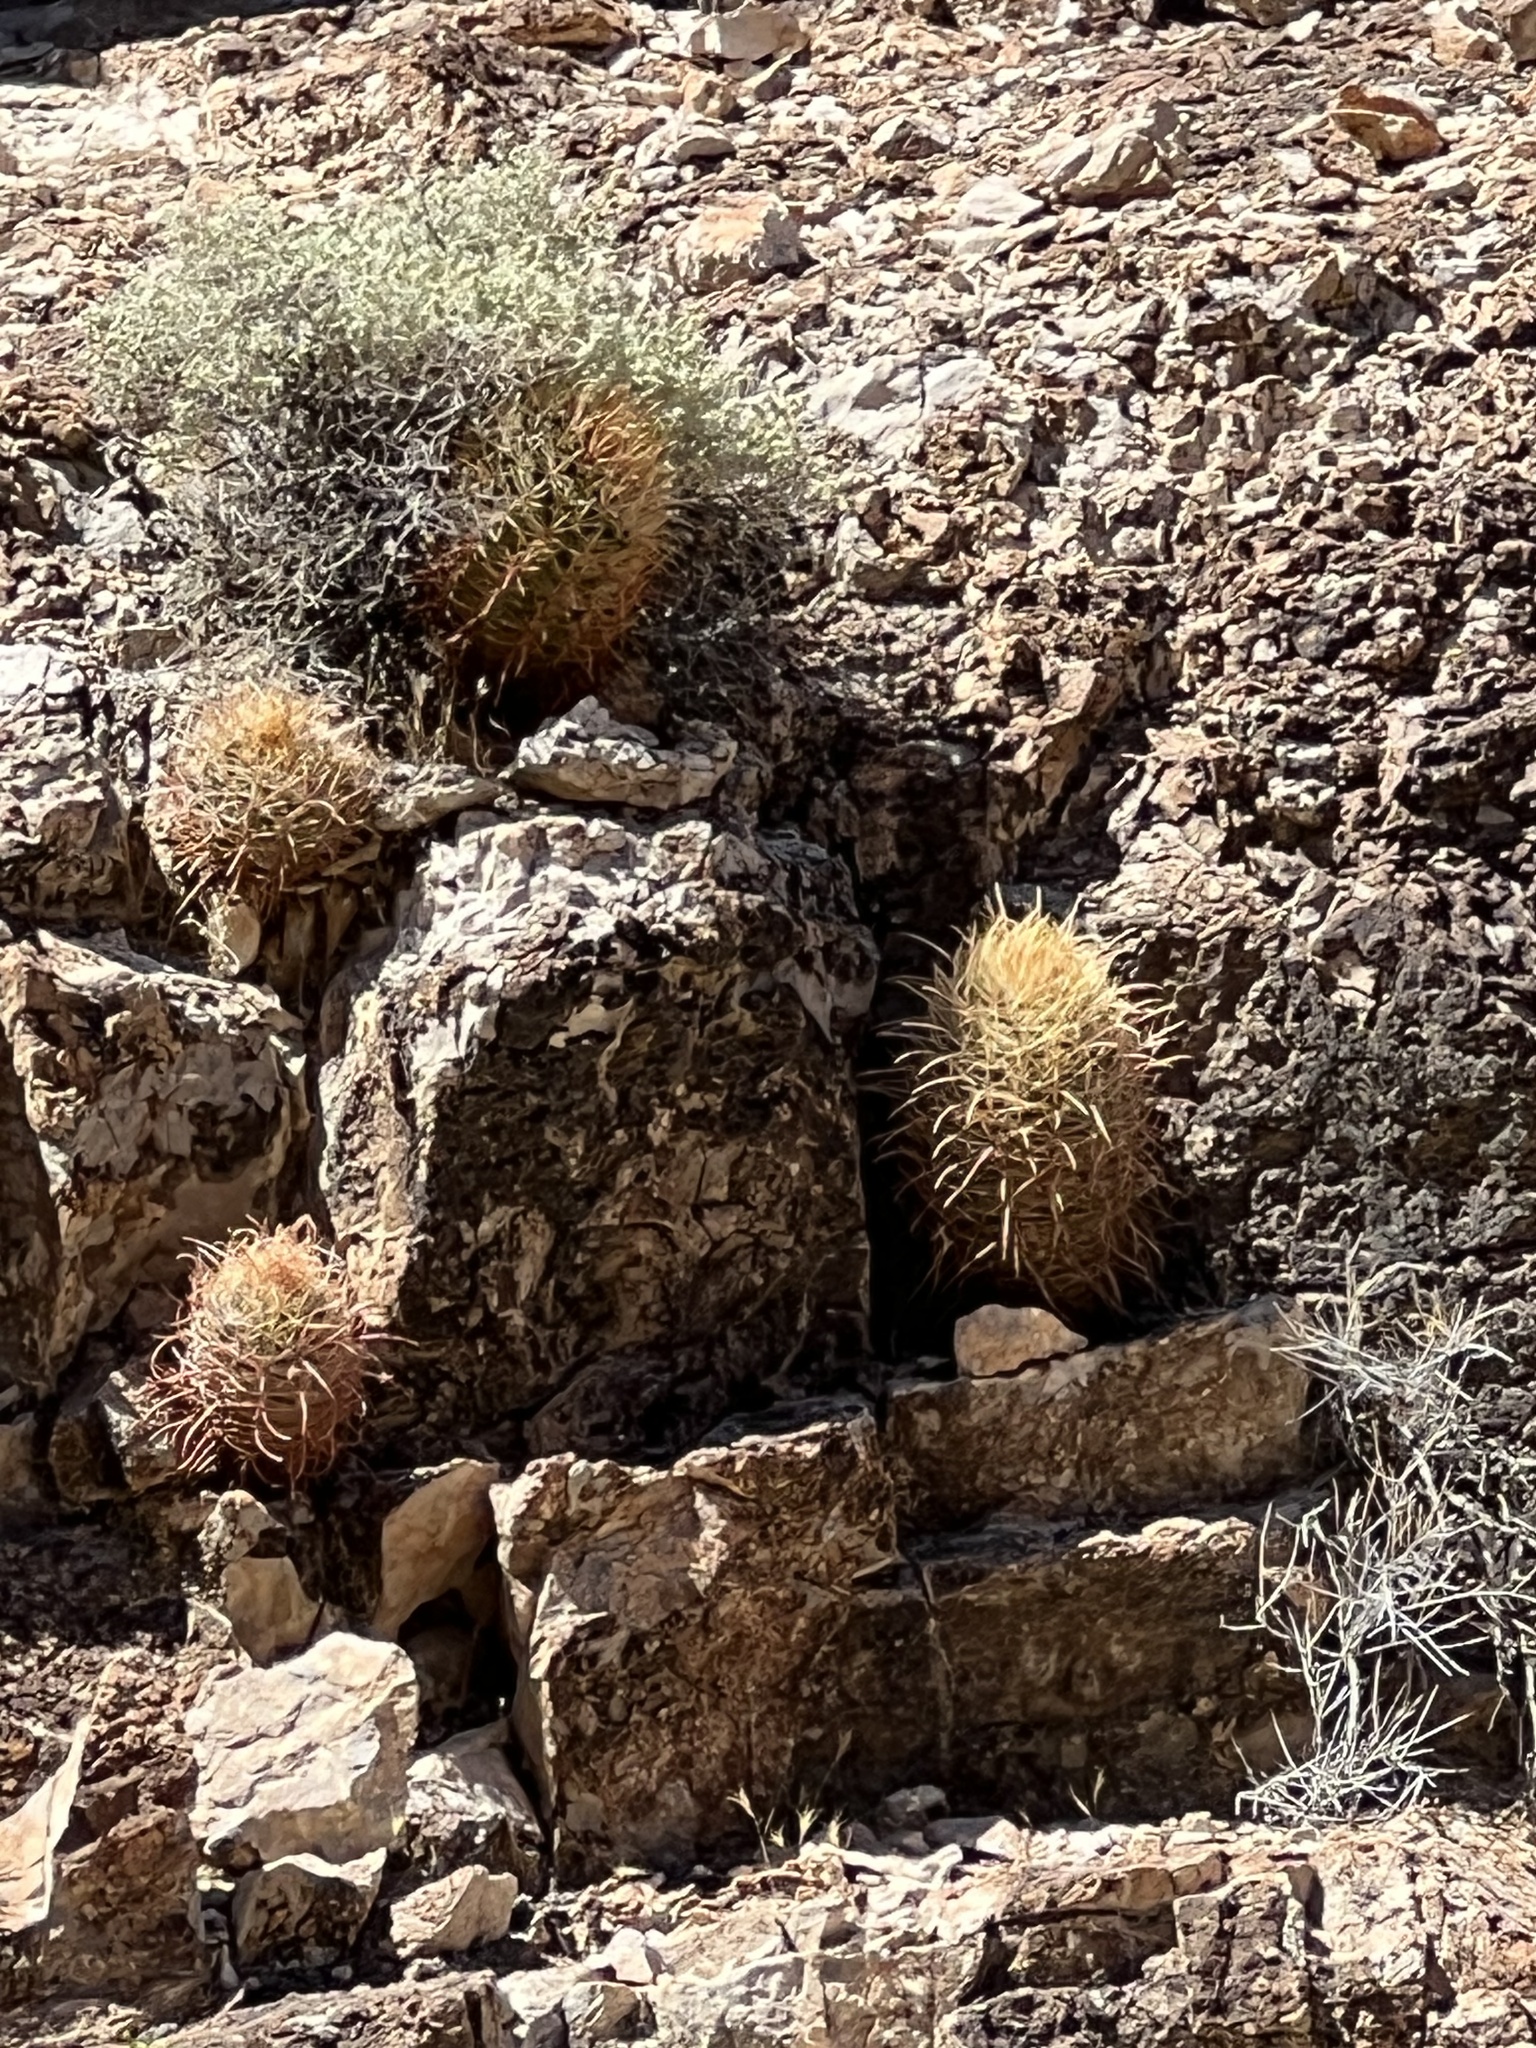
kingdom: Plantae
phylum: Tracheophyta
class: Magnoliopsida
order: Caryophyllales
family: Cactaceae
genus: Ferocactus
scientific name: Ferocactus cylindraceus
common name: California barrel cactus
